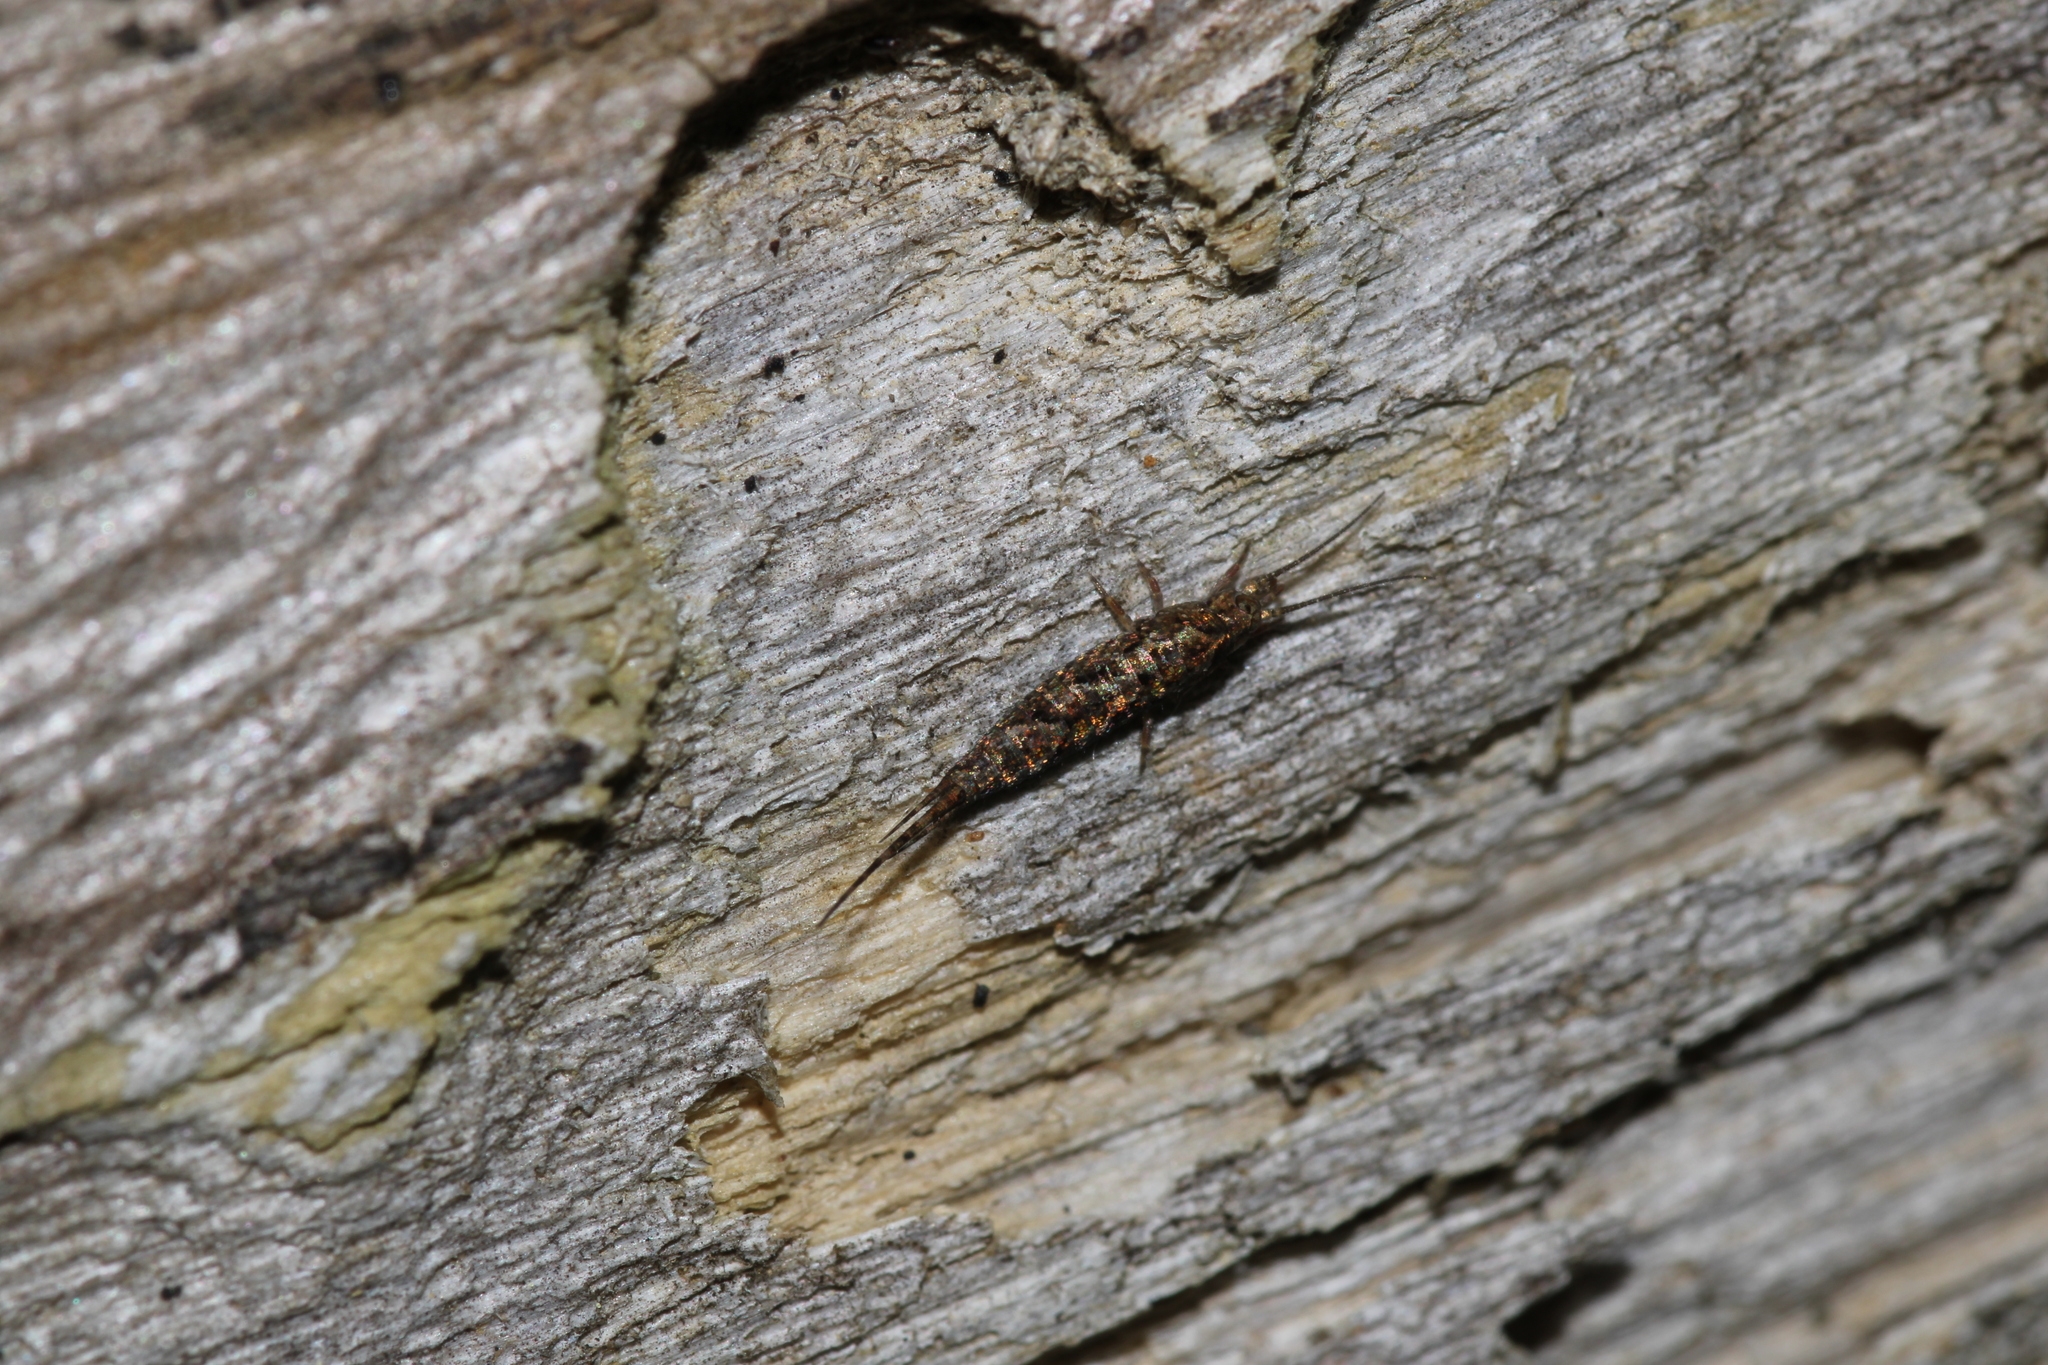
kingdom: Animalia
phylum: Arthropoda
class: Insecta
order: Archaeognatha
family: Machilidae
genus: Lepismachilis
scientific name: Lepismachilis y-signata
